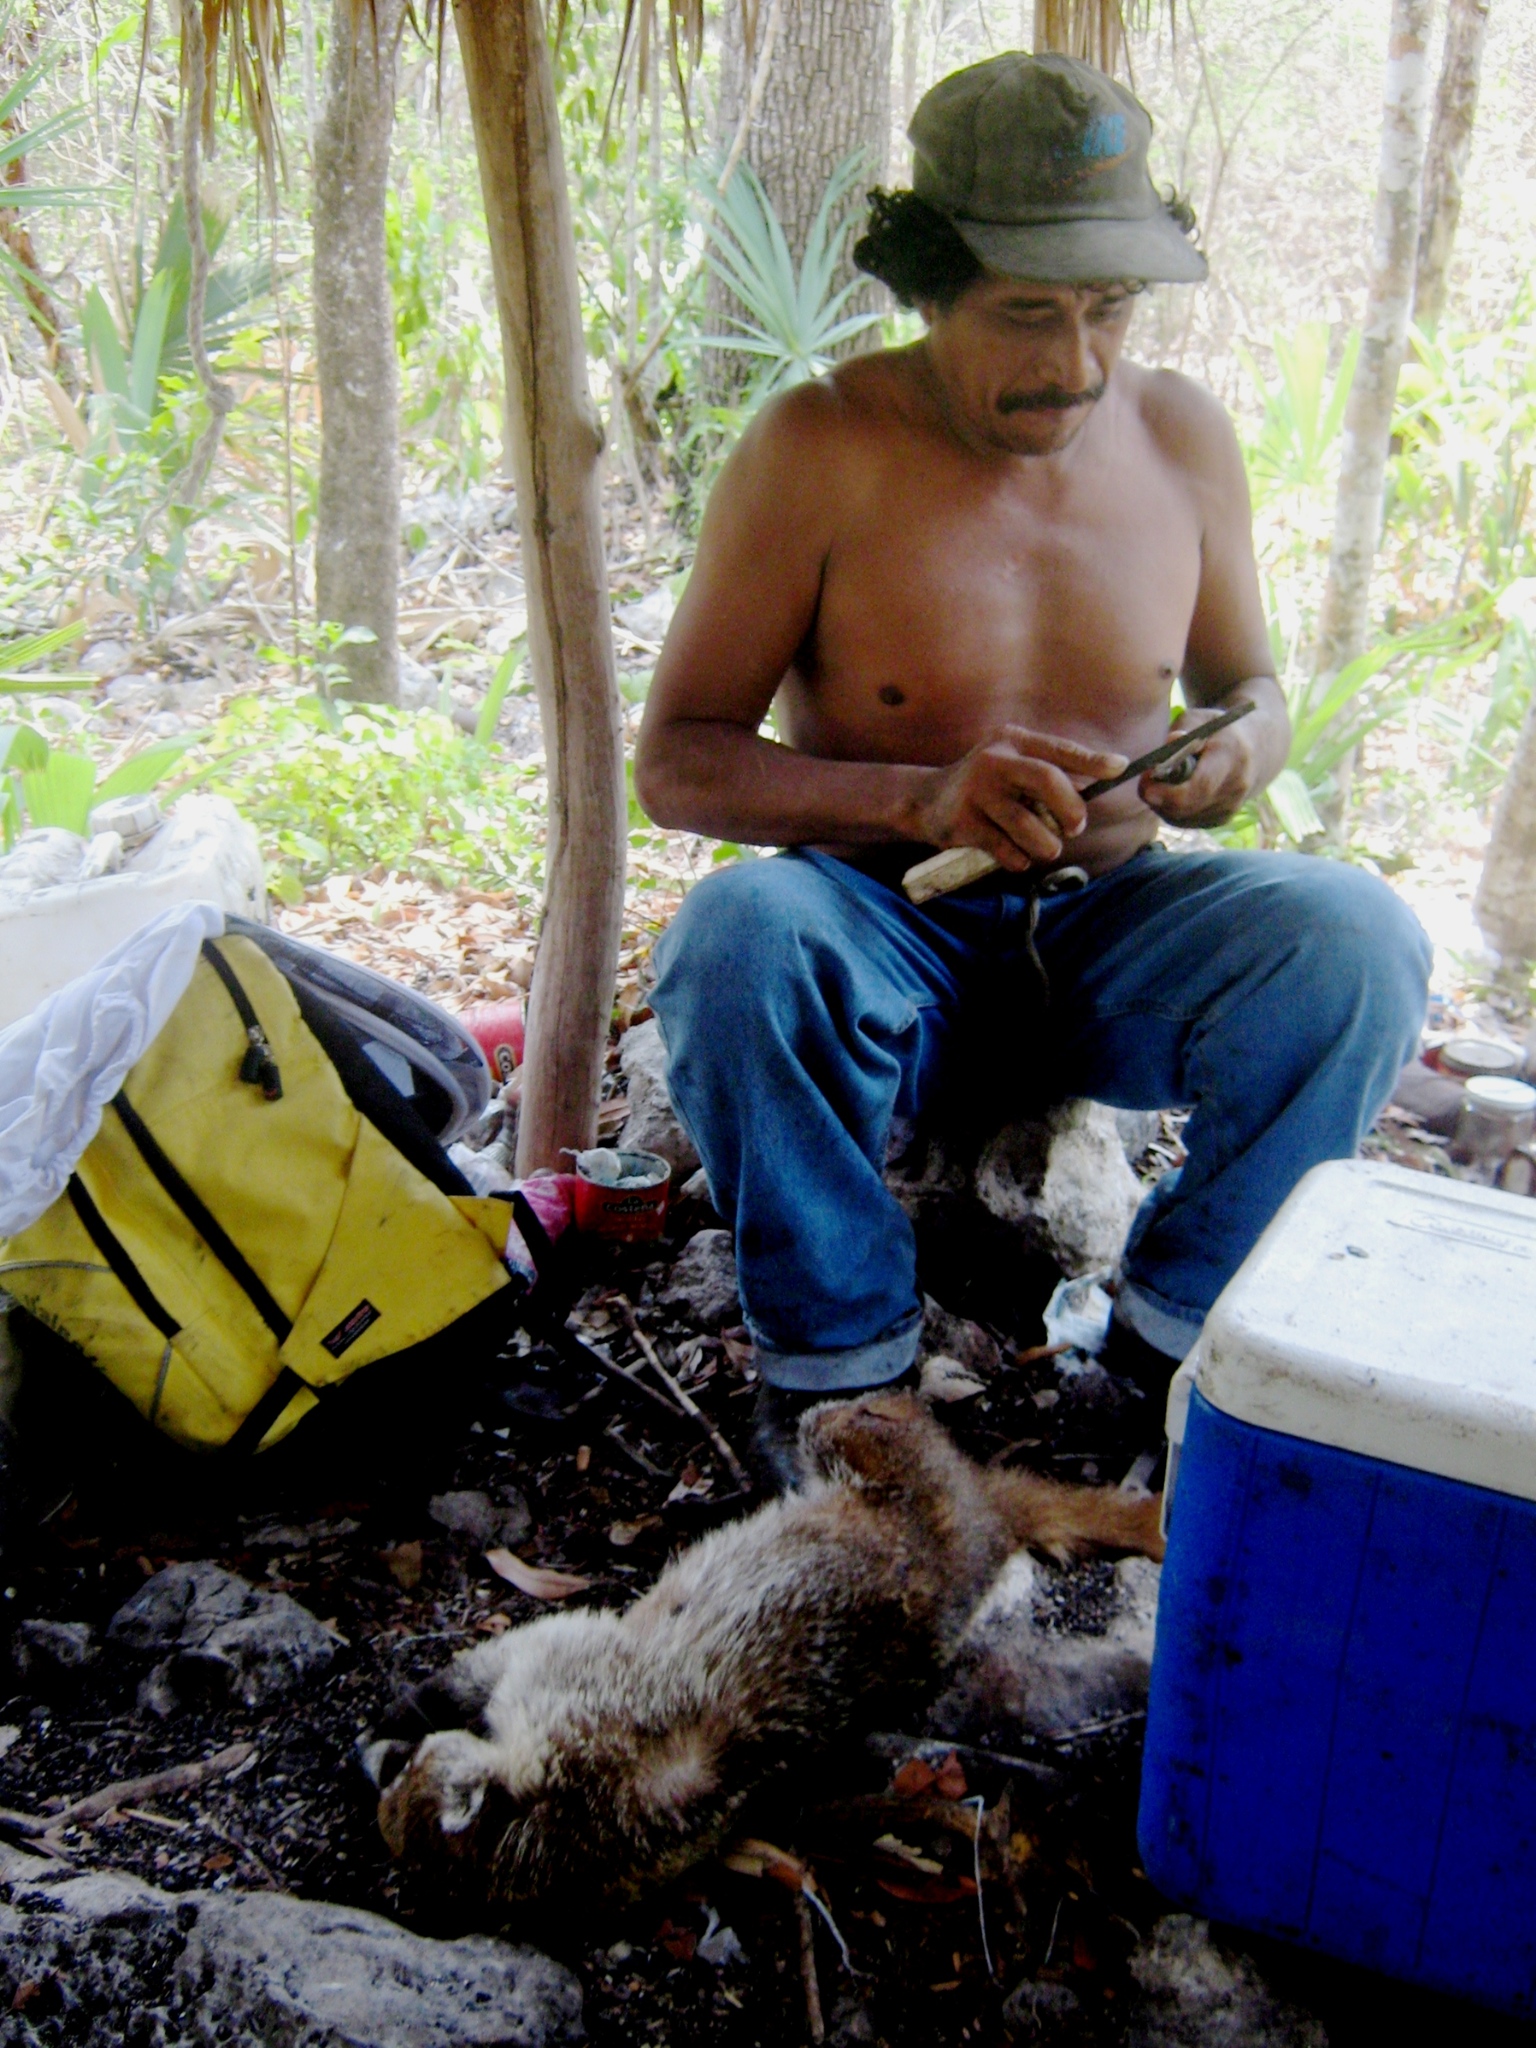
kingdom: Animalia
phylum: Chordata
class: Mammalia
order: Carnivora
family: Procyonidae
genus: Nasua
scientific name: Nasua narica
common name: White-nosed coati
